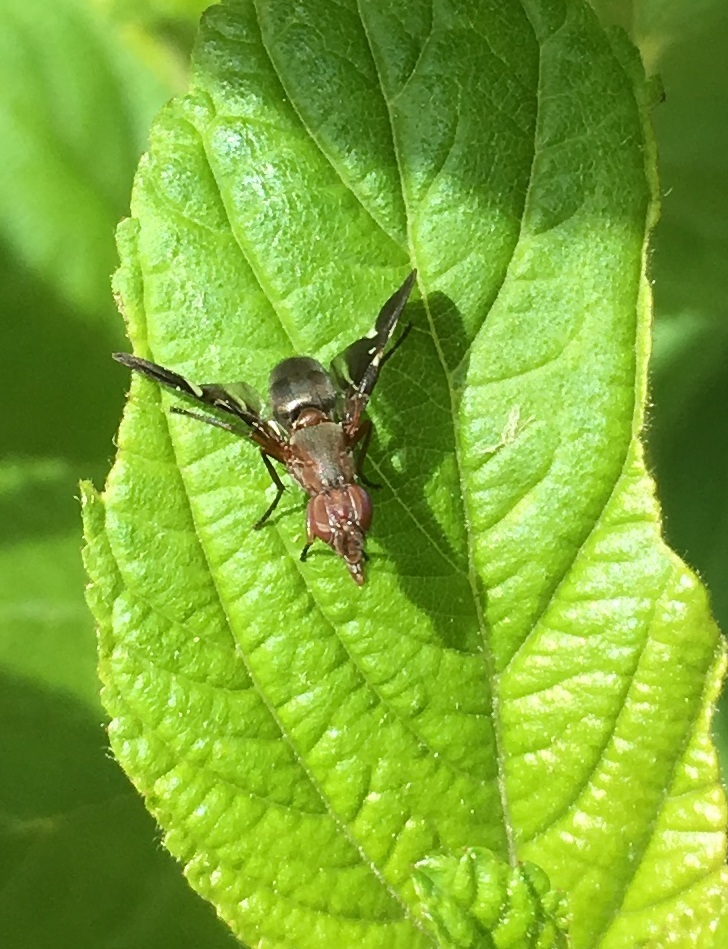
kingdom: Animalia
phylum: Arthropoda
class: Insecta
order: Diptera
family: Ulidiidae
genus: Delphinia
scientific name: Delphinia picta
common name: Common picture-winged fly
